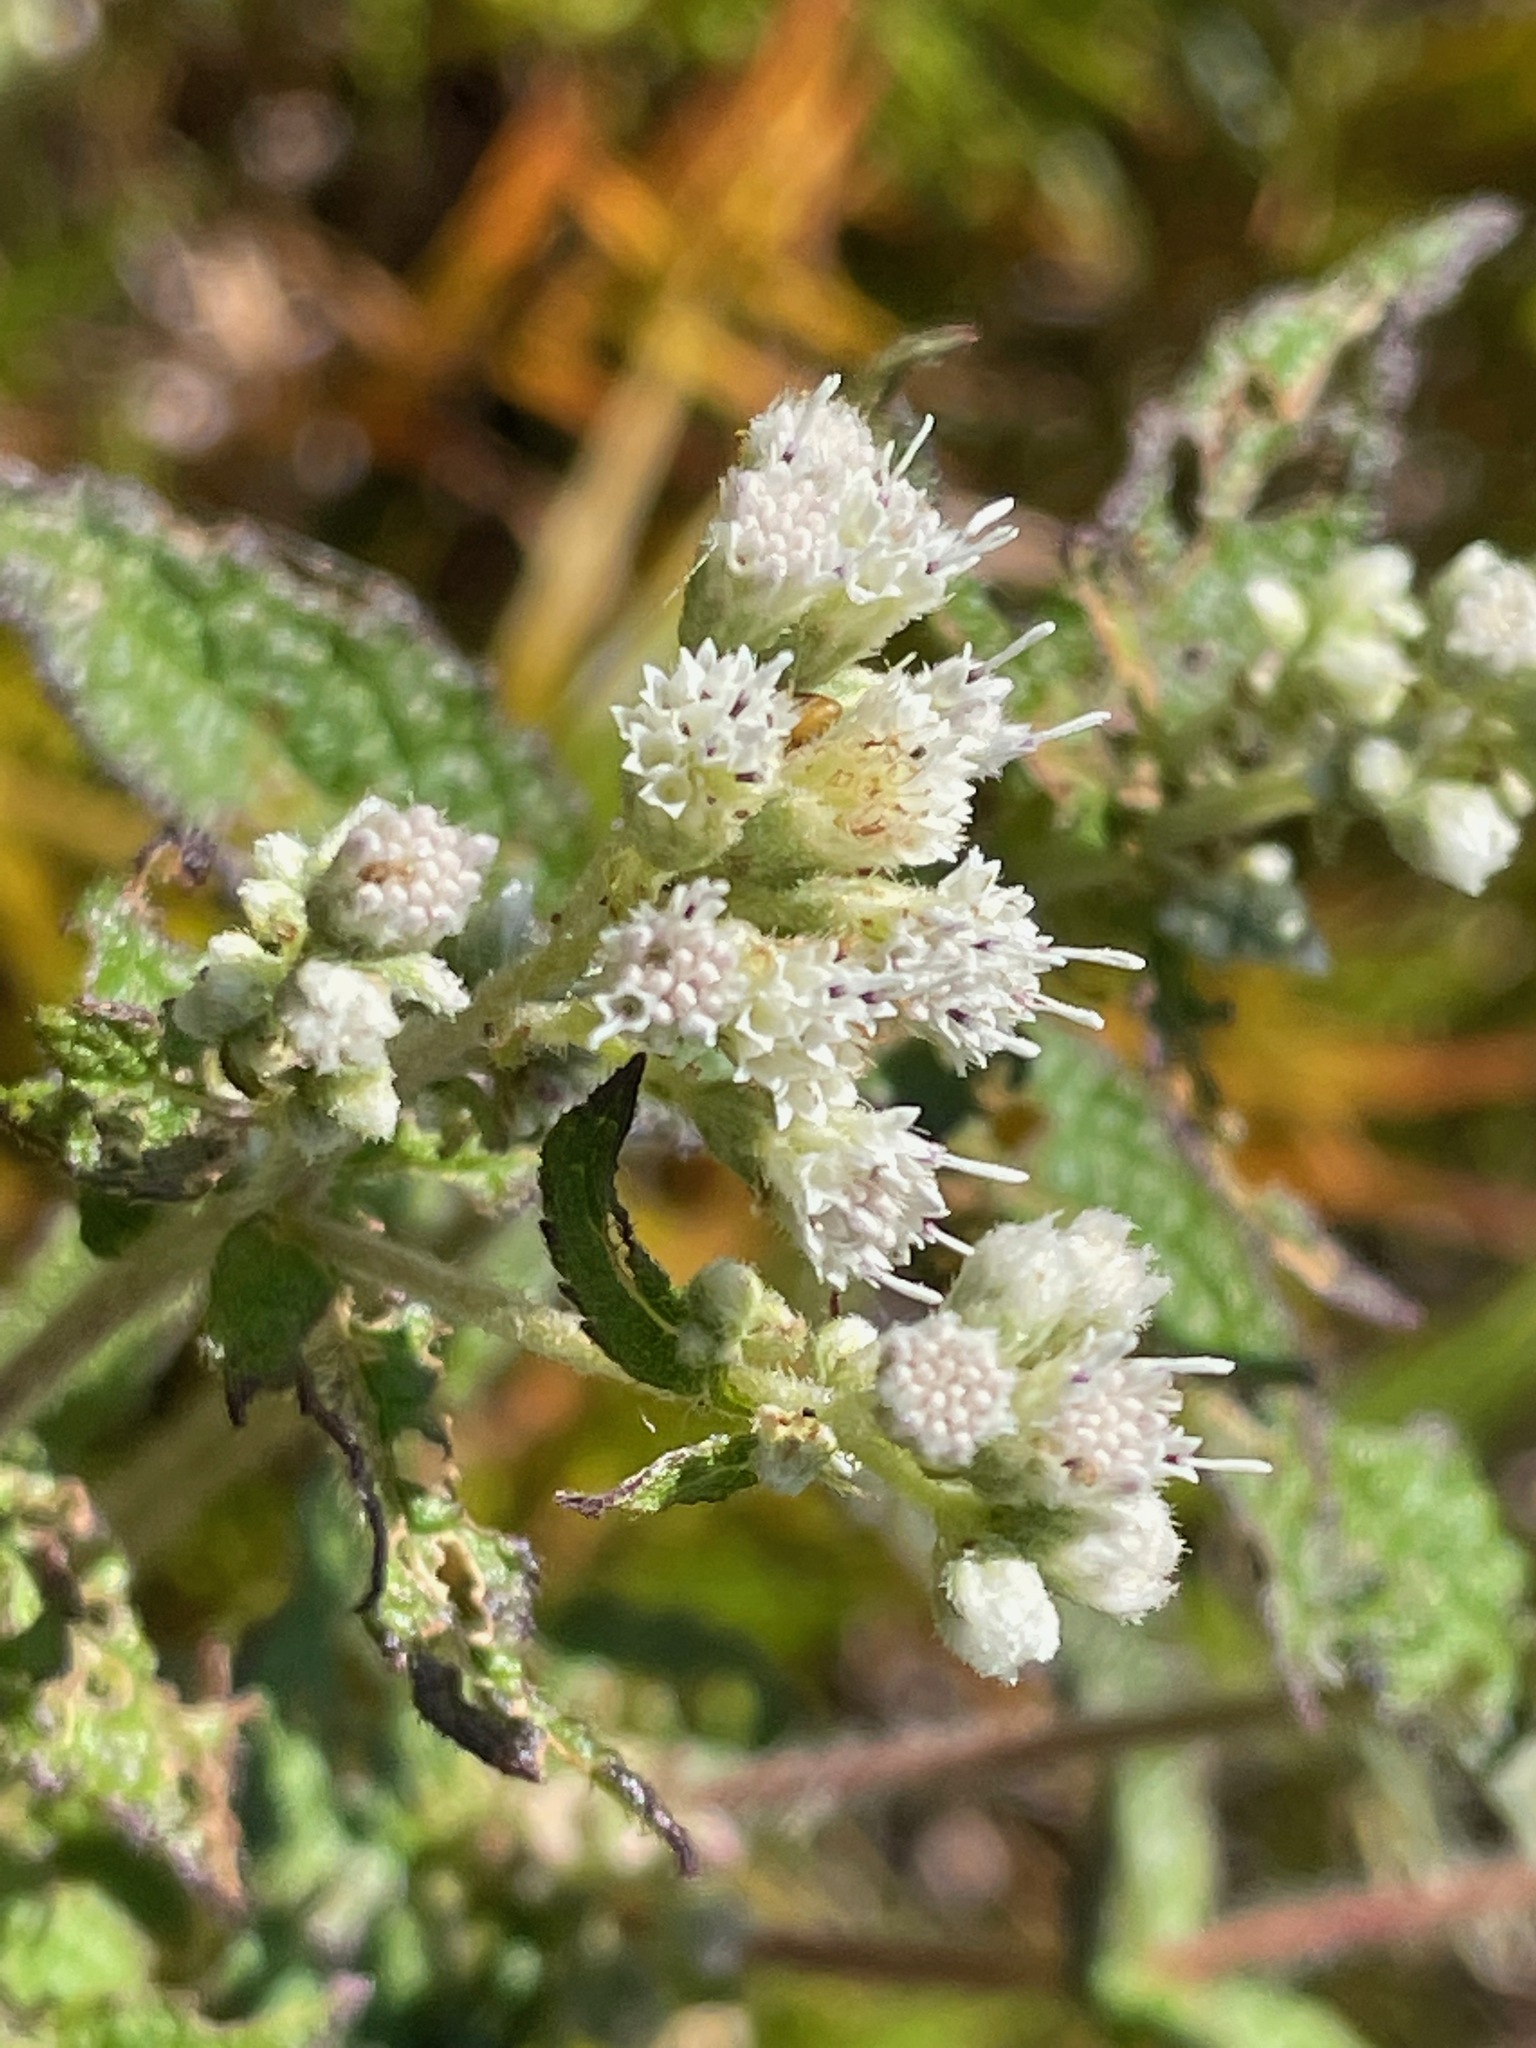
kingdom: Plantae
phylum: Tracheophyta
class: Magnoliopsida
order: Asterales
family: Asteraceae
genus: Eupatorium
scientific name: Eupatorium perfoliatum
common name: Boneset
